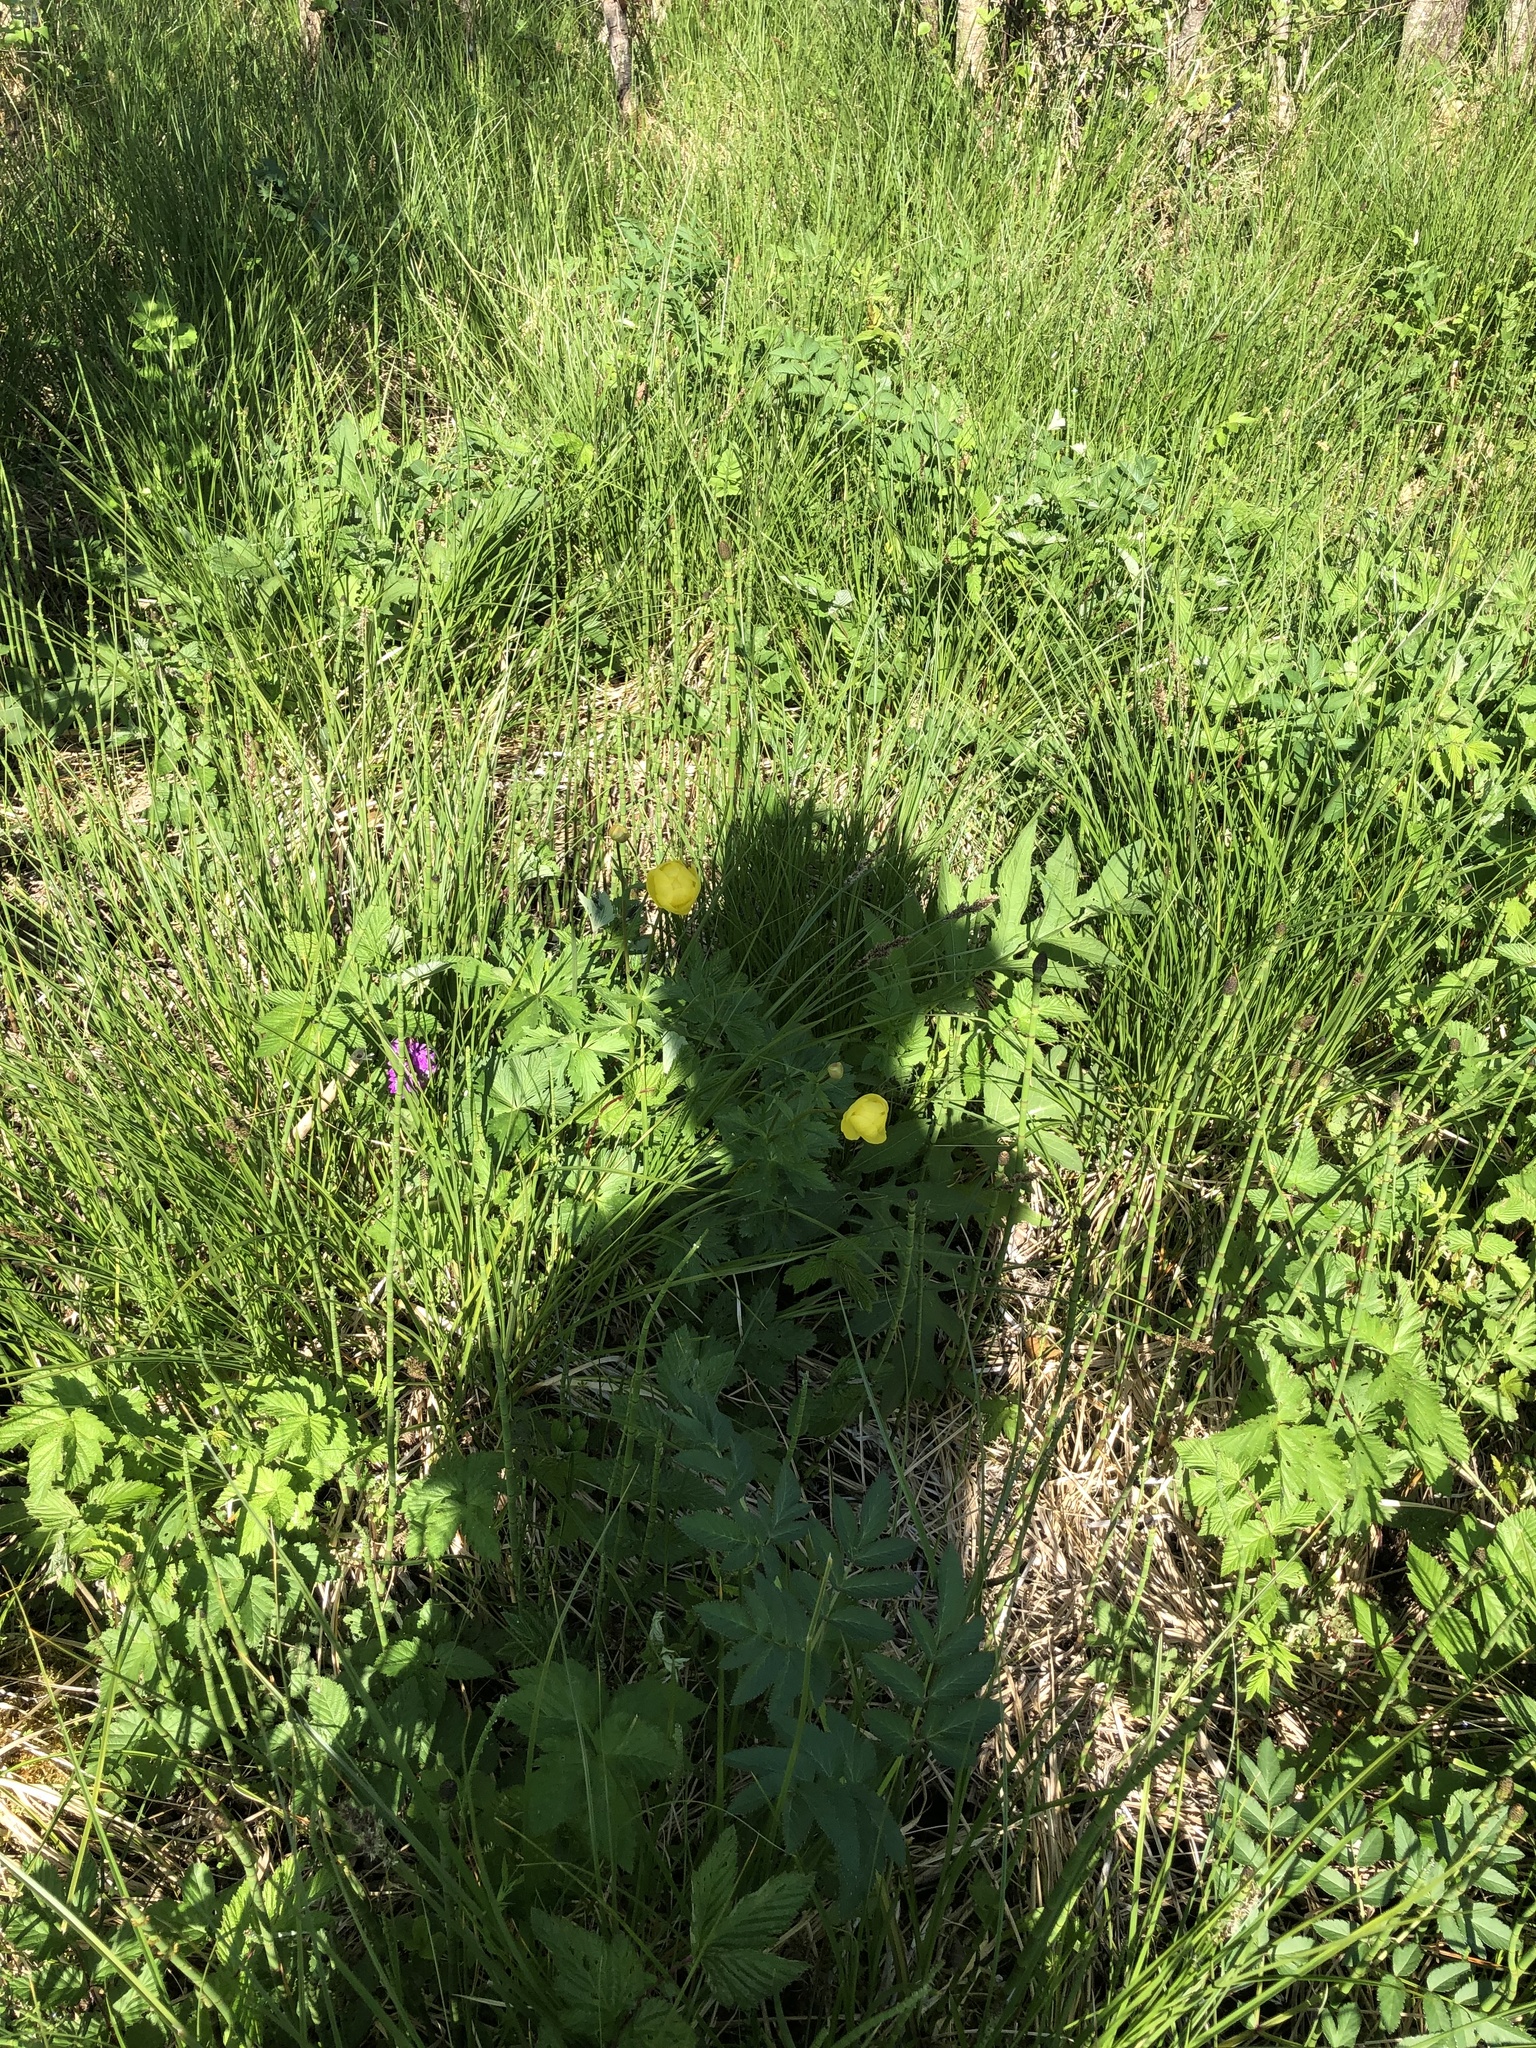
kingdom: Plantae
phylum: Tracheophyta
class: Magnoliopsida
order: Ranunculales
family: Ranunculaceae
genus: Trollius
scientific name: Trollius europaeus
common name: European globeflower
